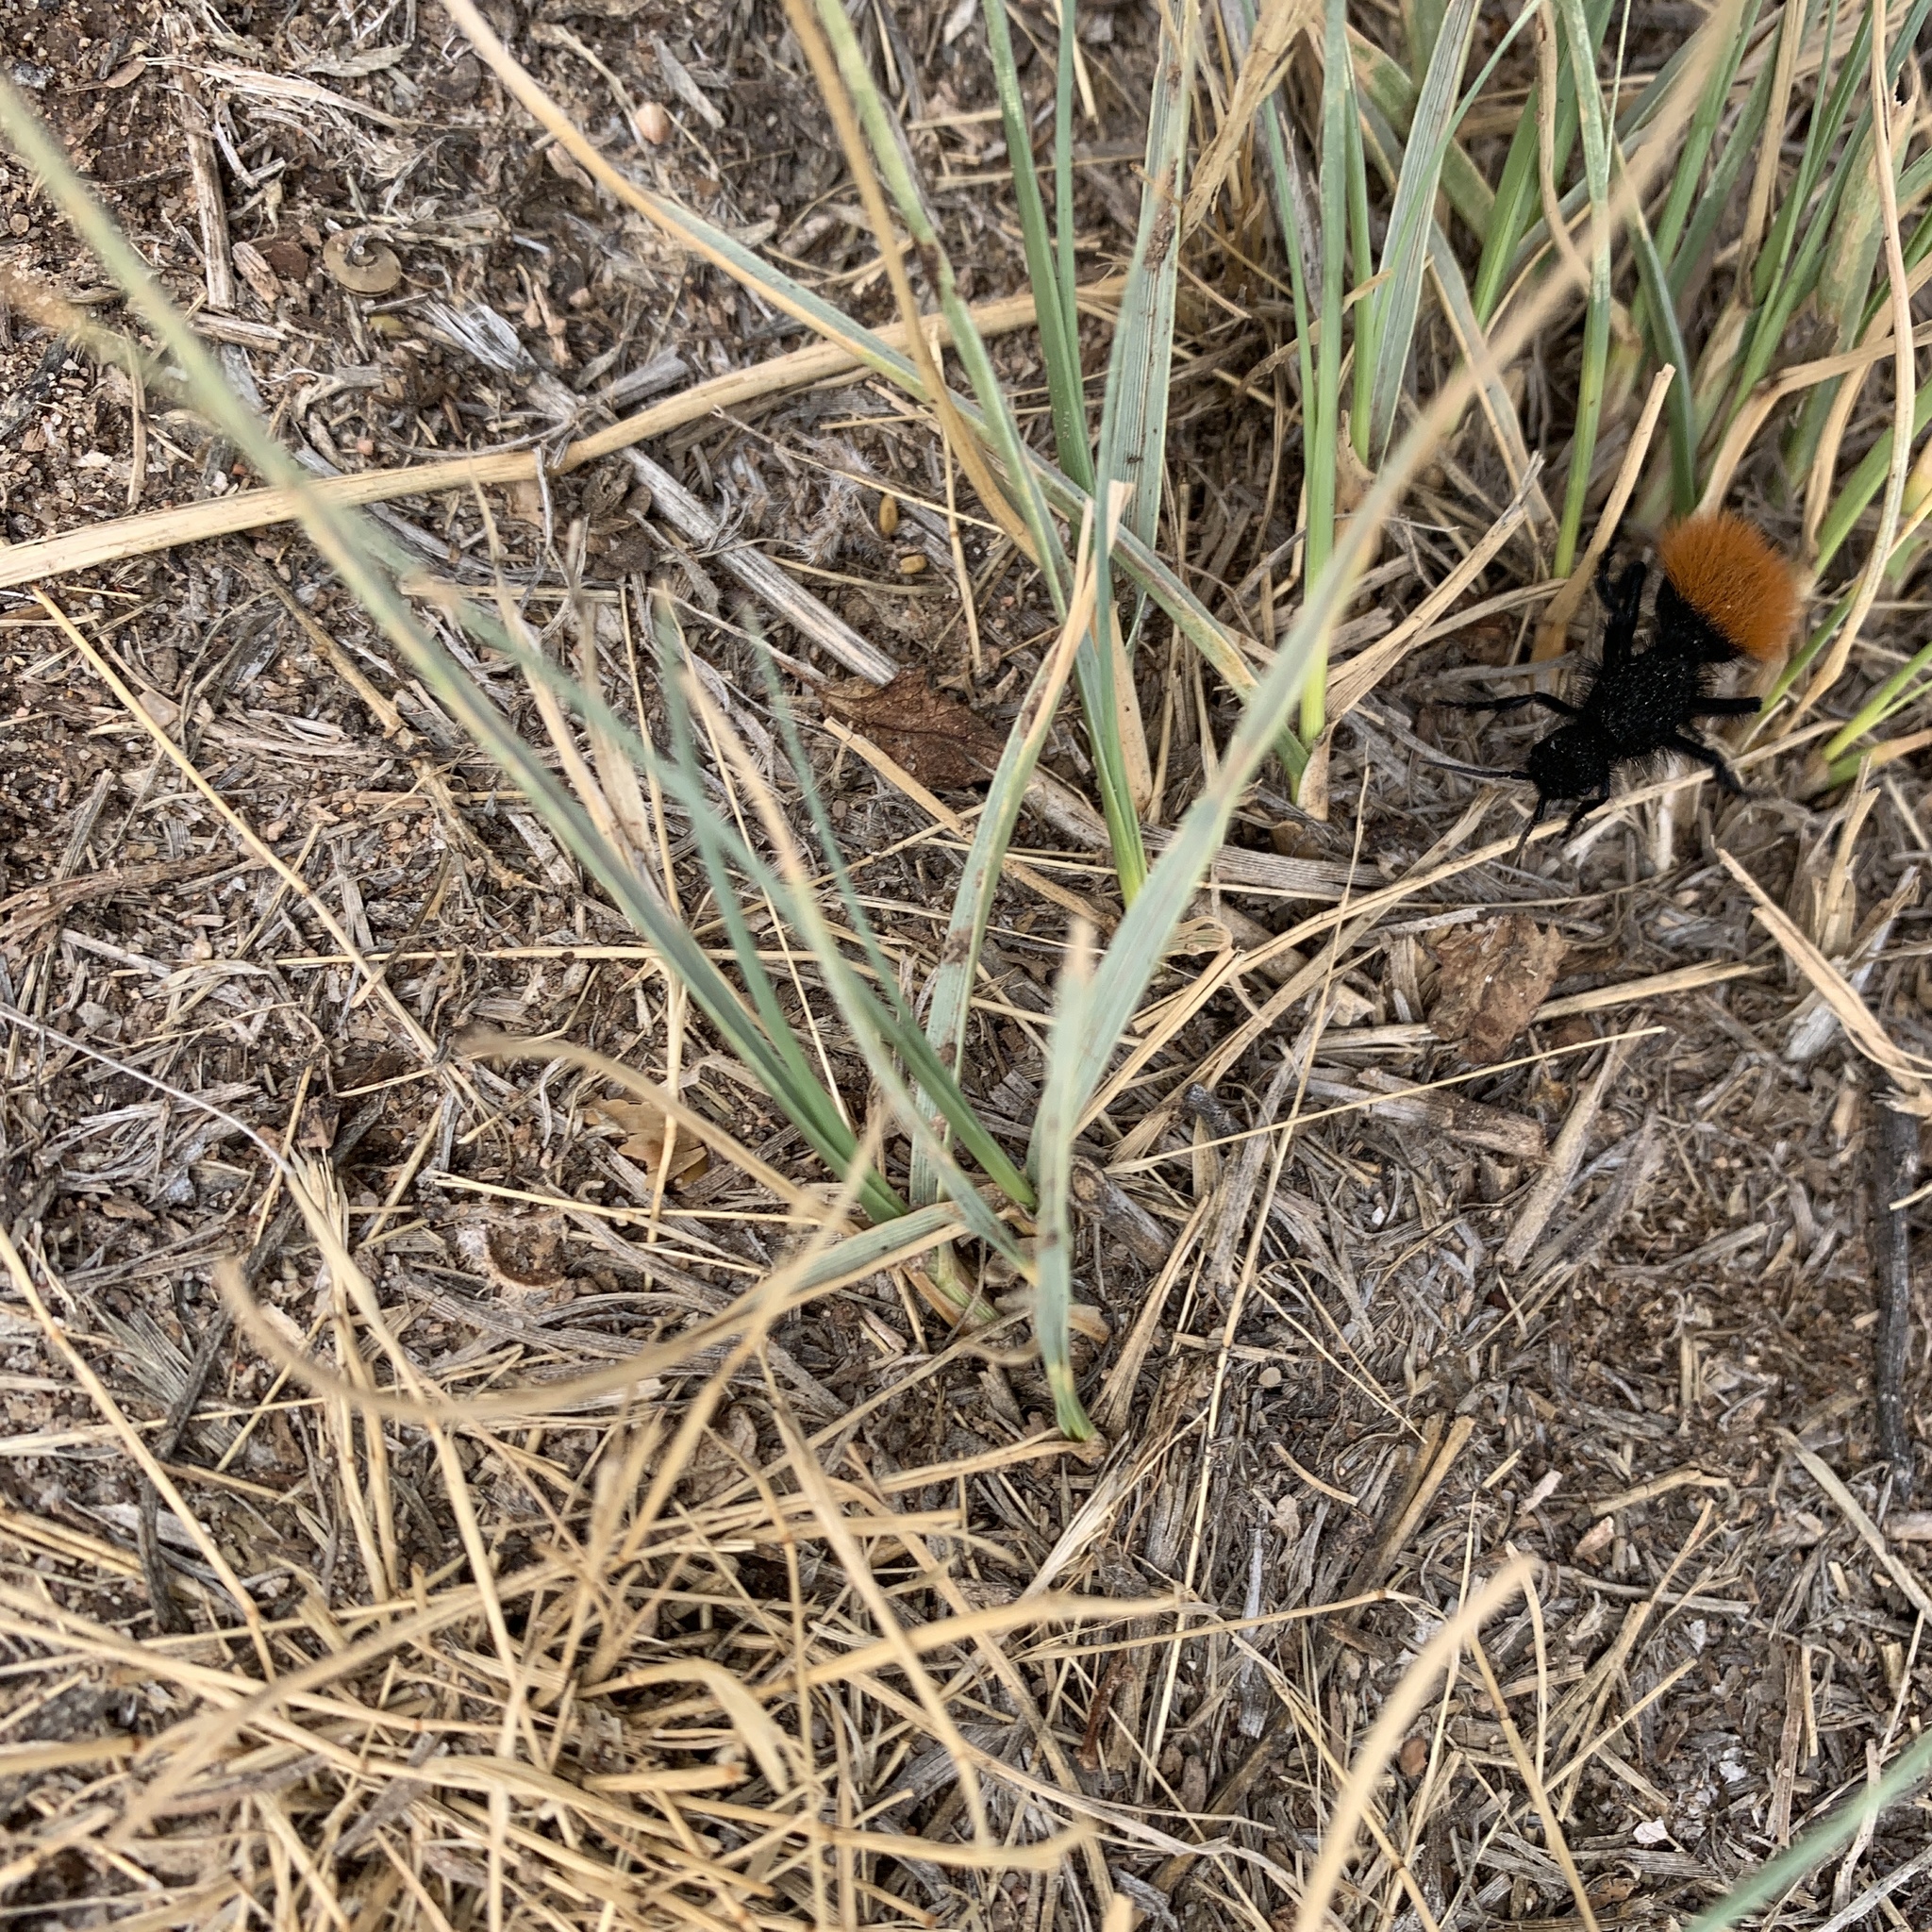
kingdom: Animalia
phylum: Arthropoda
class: Insecta
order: Hymenoptera
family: Mutillidae
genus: Dasymutilla
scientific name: Dasymutilla
